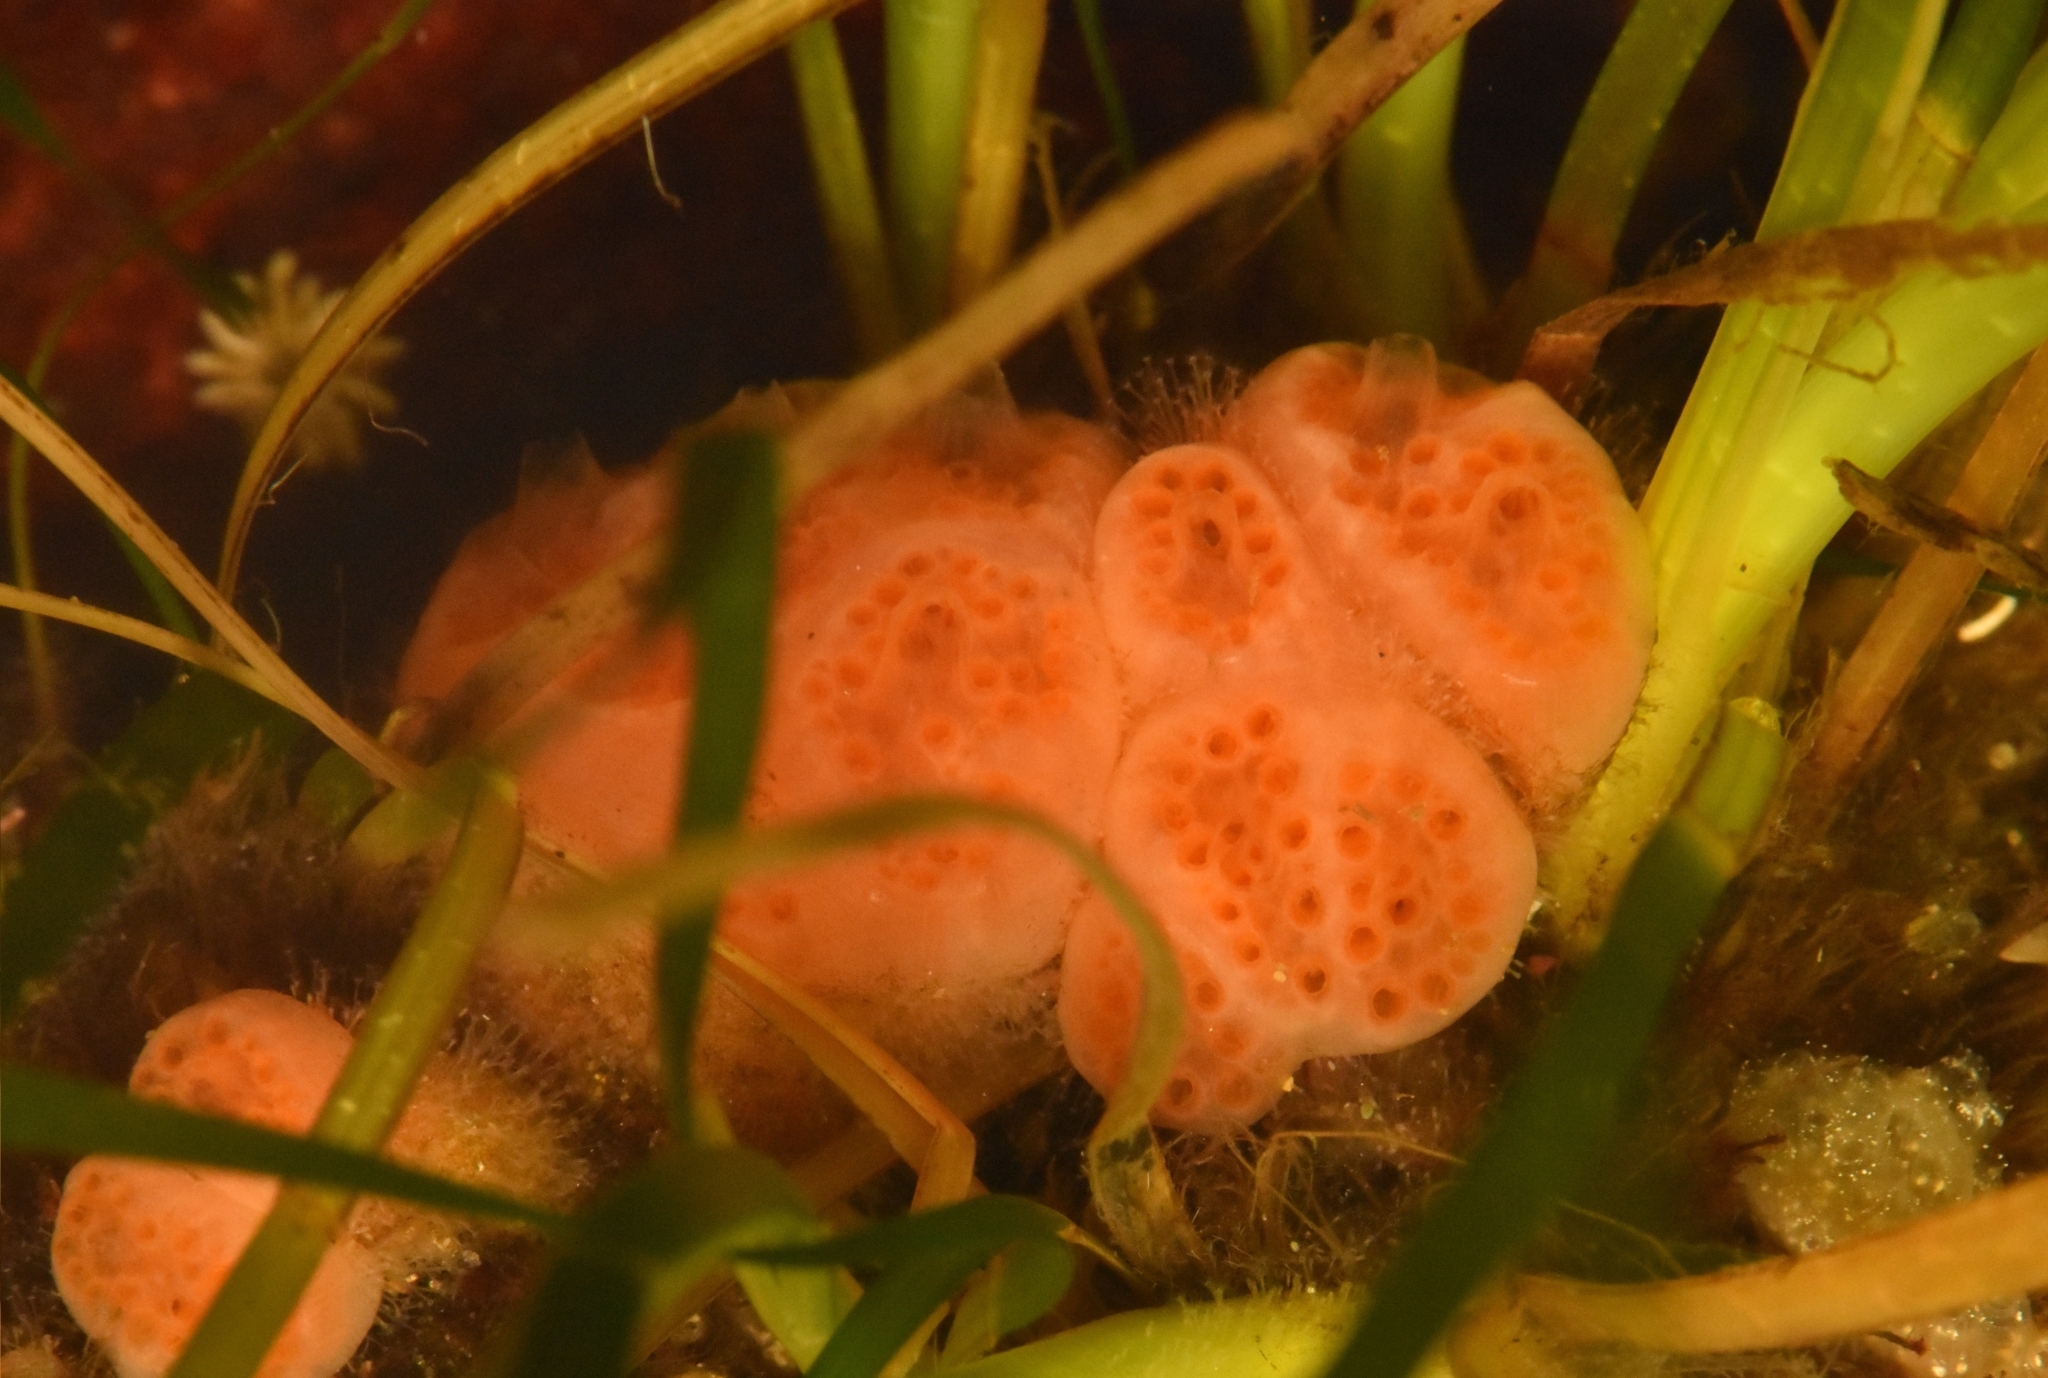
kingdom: Animalia
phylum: Chordata
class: Ascidiacea
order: Aplousobranchia
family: Polyclinidae
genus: Aplidium
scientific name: Aplidium kottae
